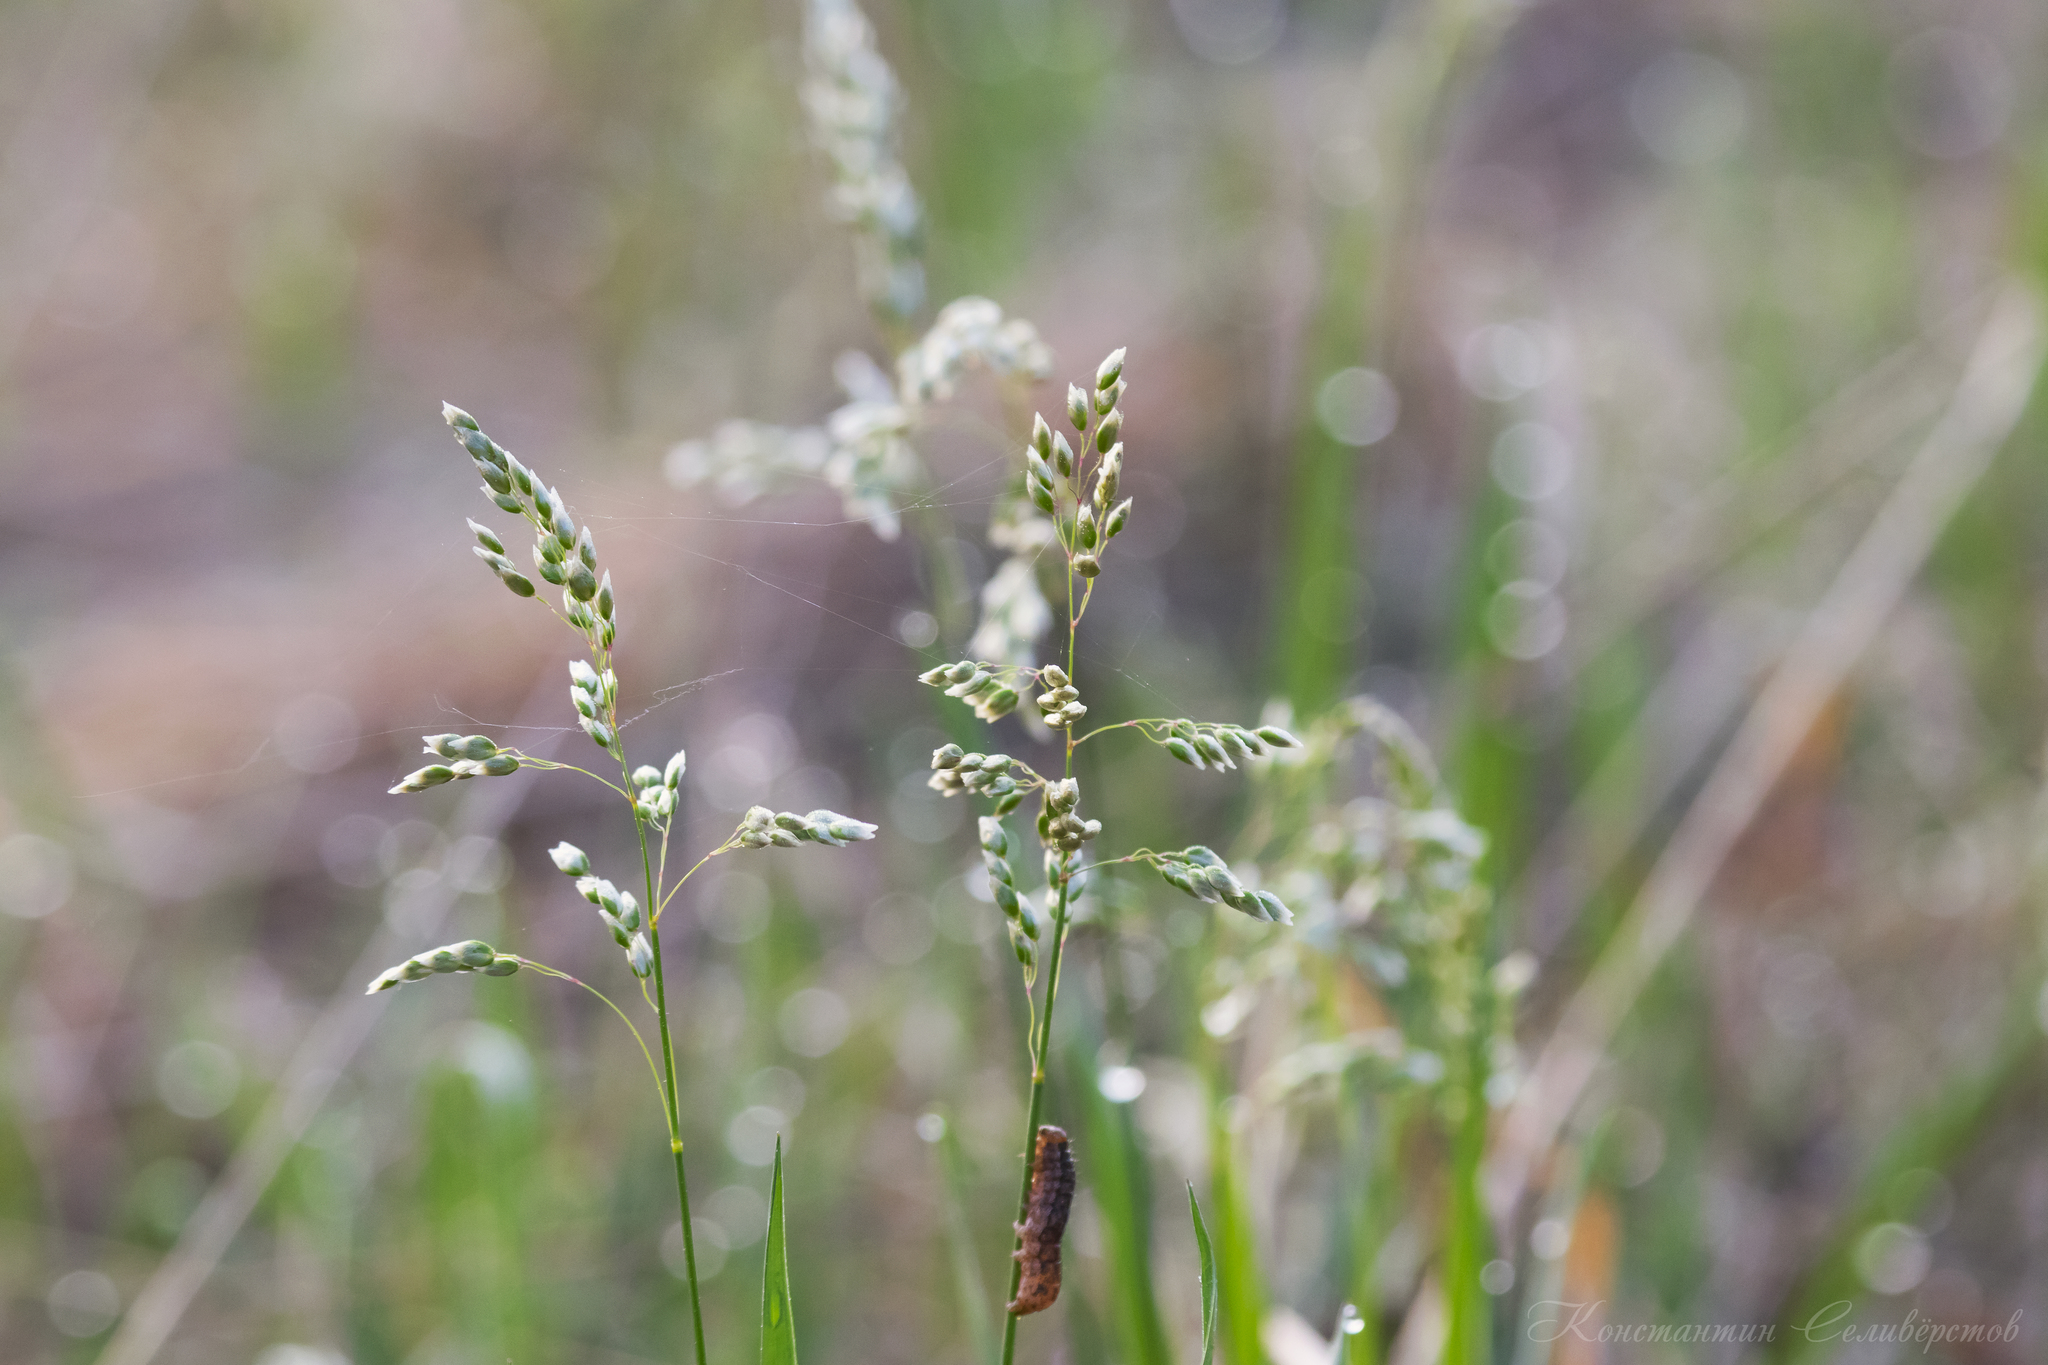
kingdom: Plantae
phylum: Tracheophyta
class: Liliopsida
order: Poales
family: Poaceae
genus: Anthoxanthum
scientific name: Anthoxanthum nitens
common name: Holy grass
